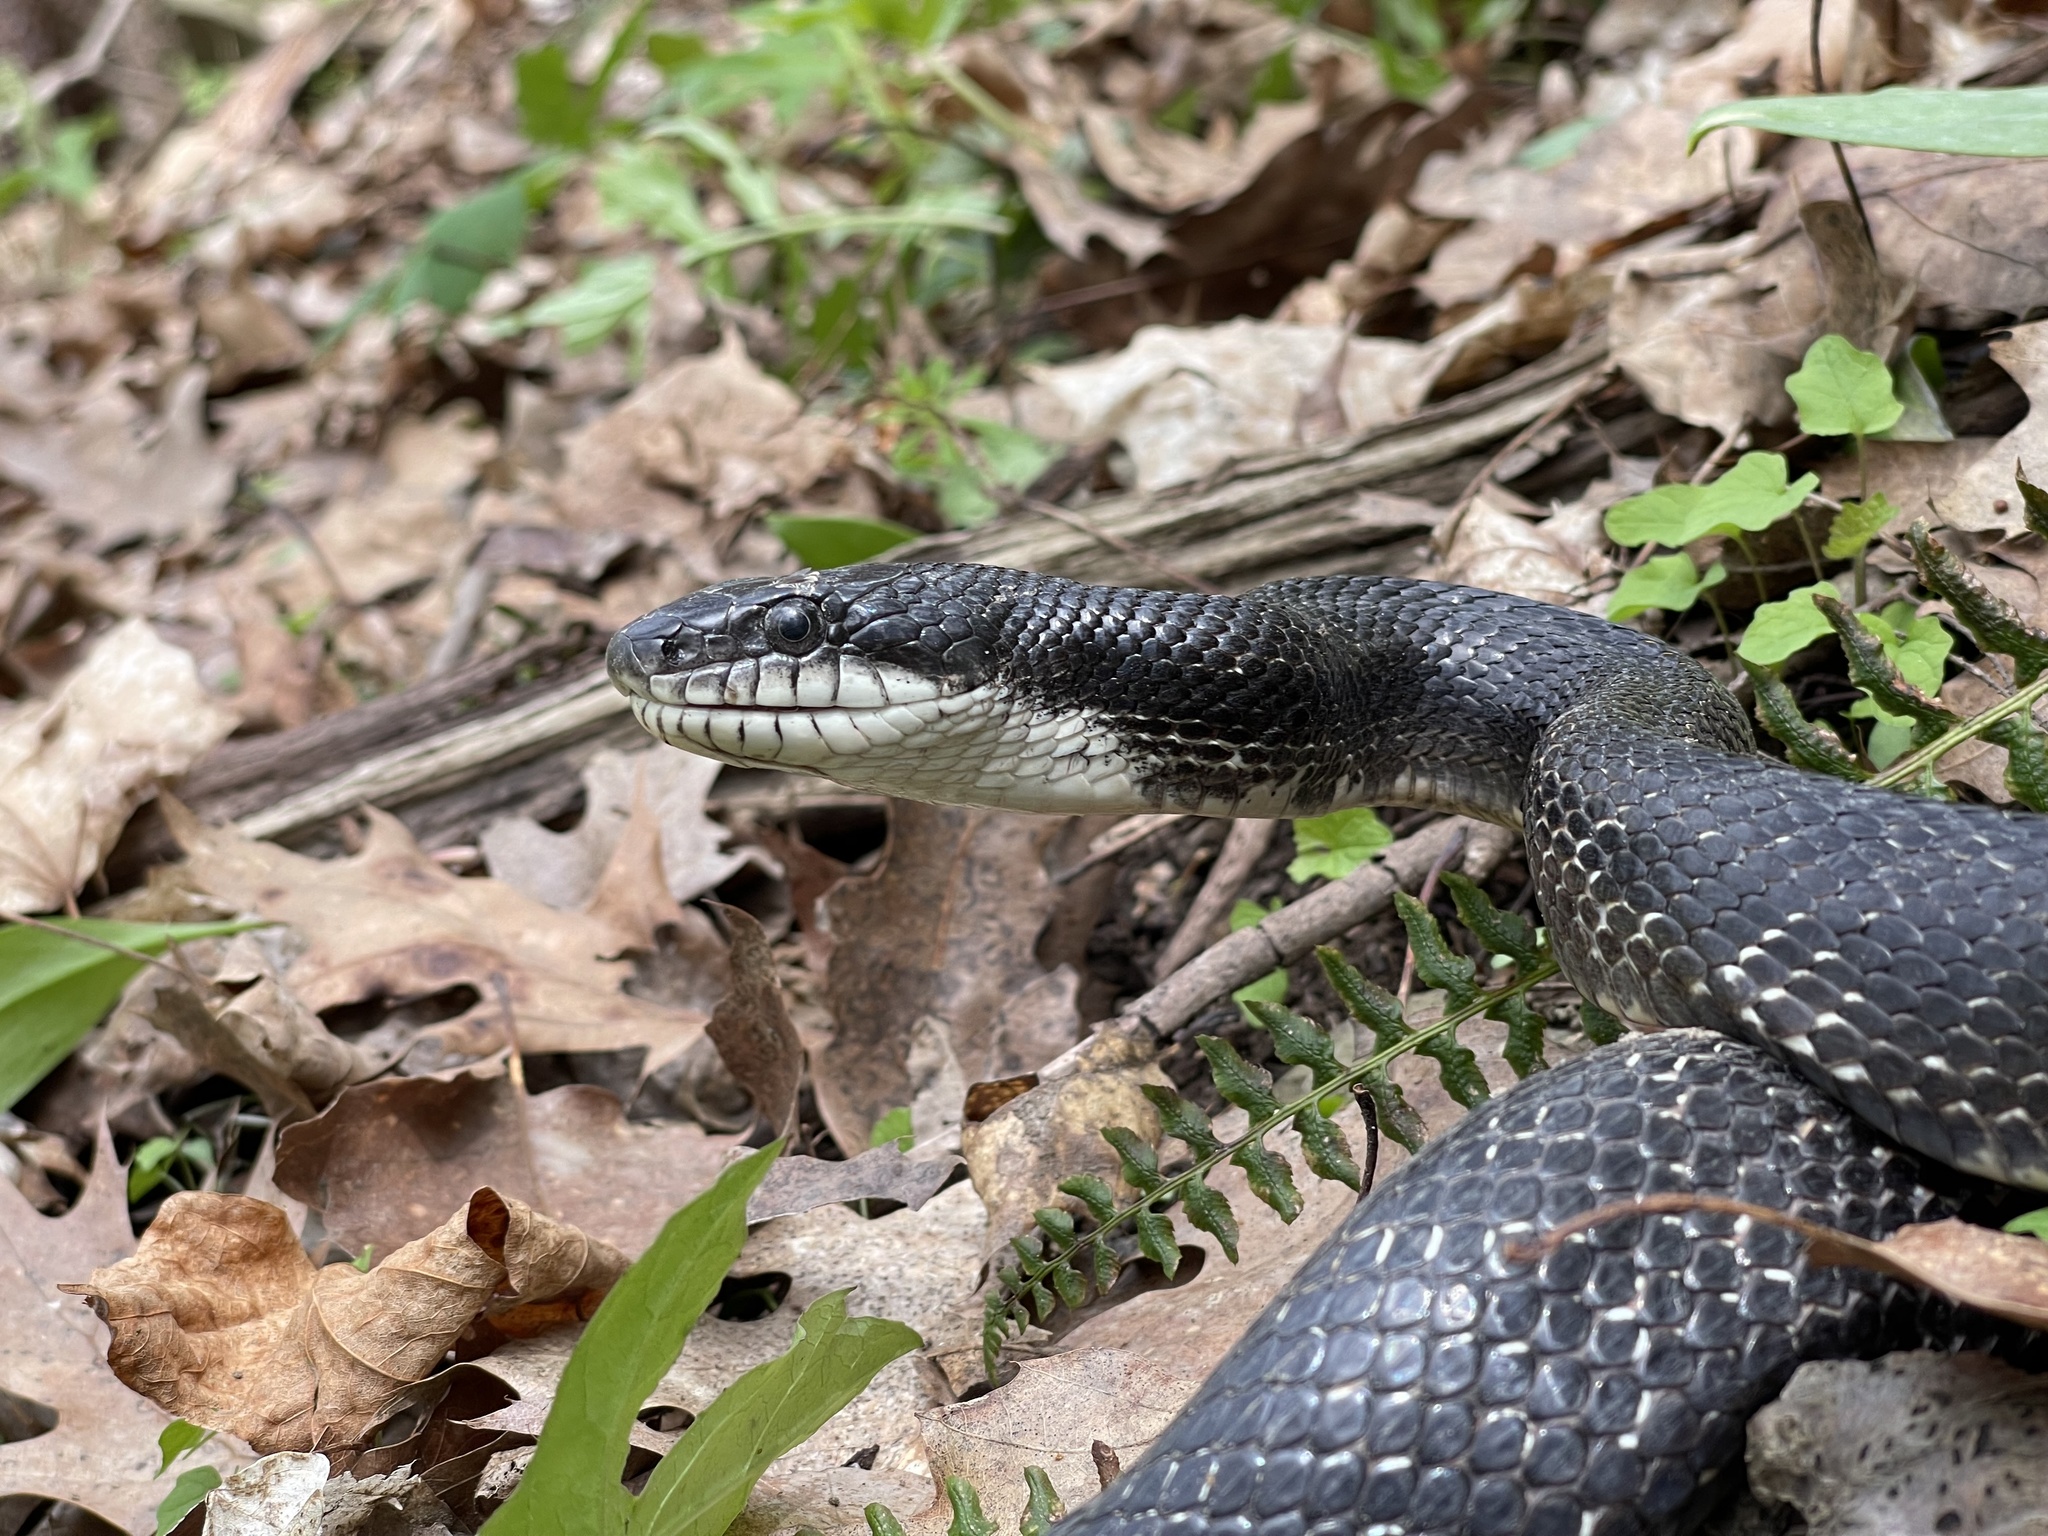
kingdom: Animalia
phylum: Chordata
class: Squamata
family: Colubridae
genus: Pantherophis
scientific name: Pantherophis spiloides
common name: Gray rat snake
